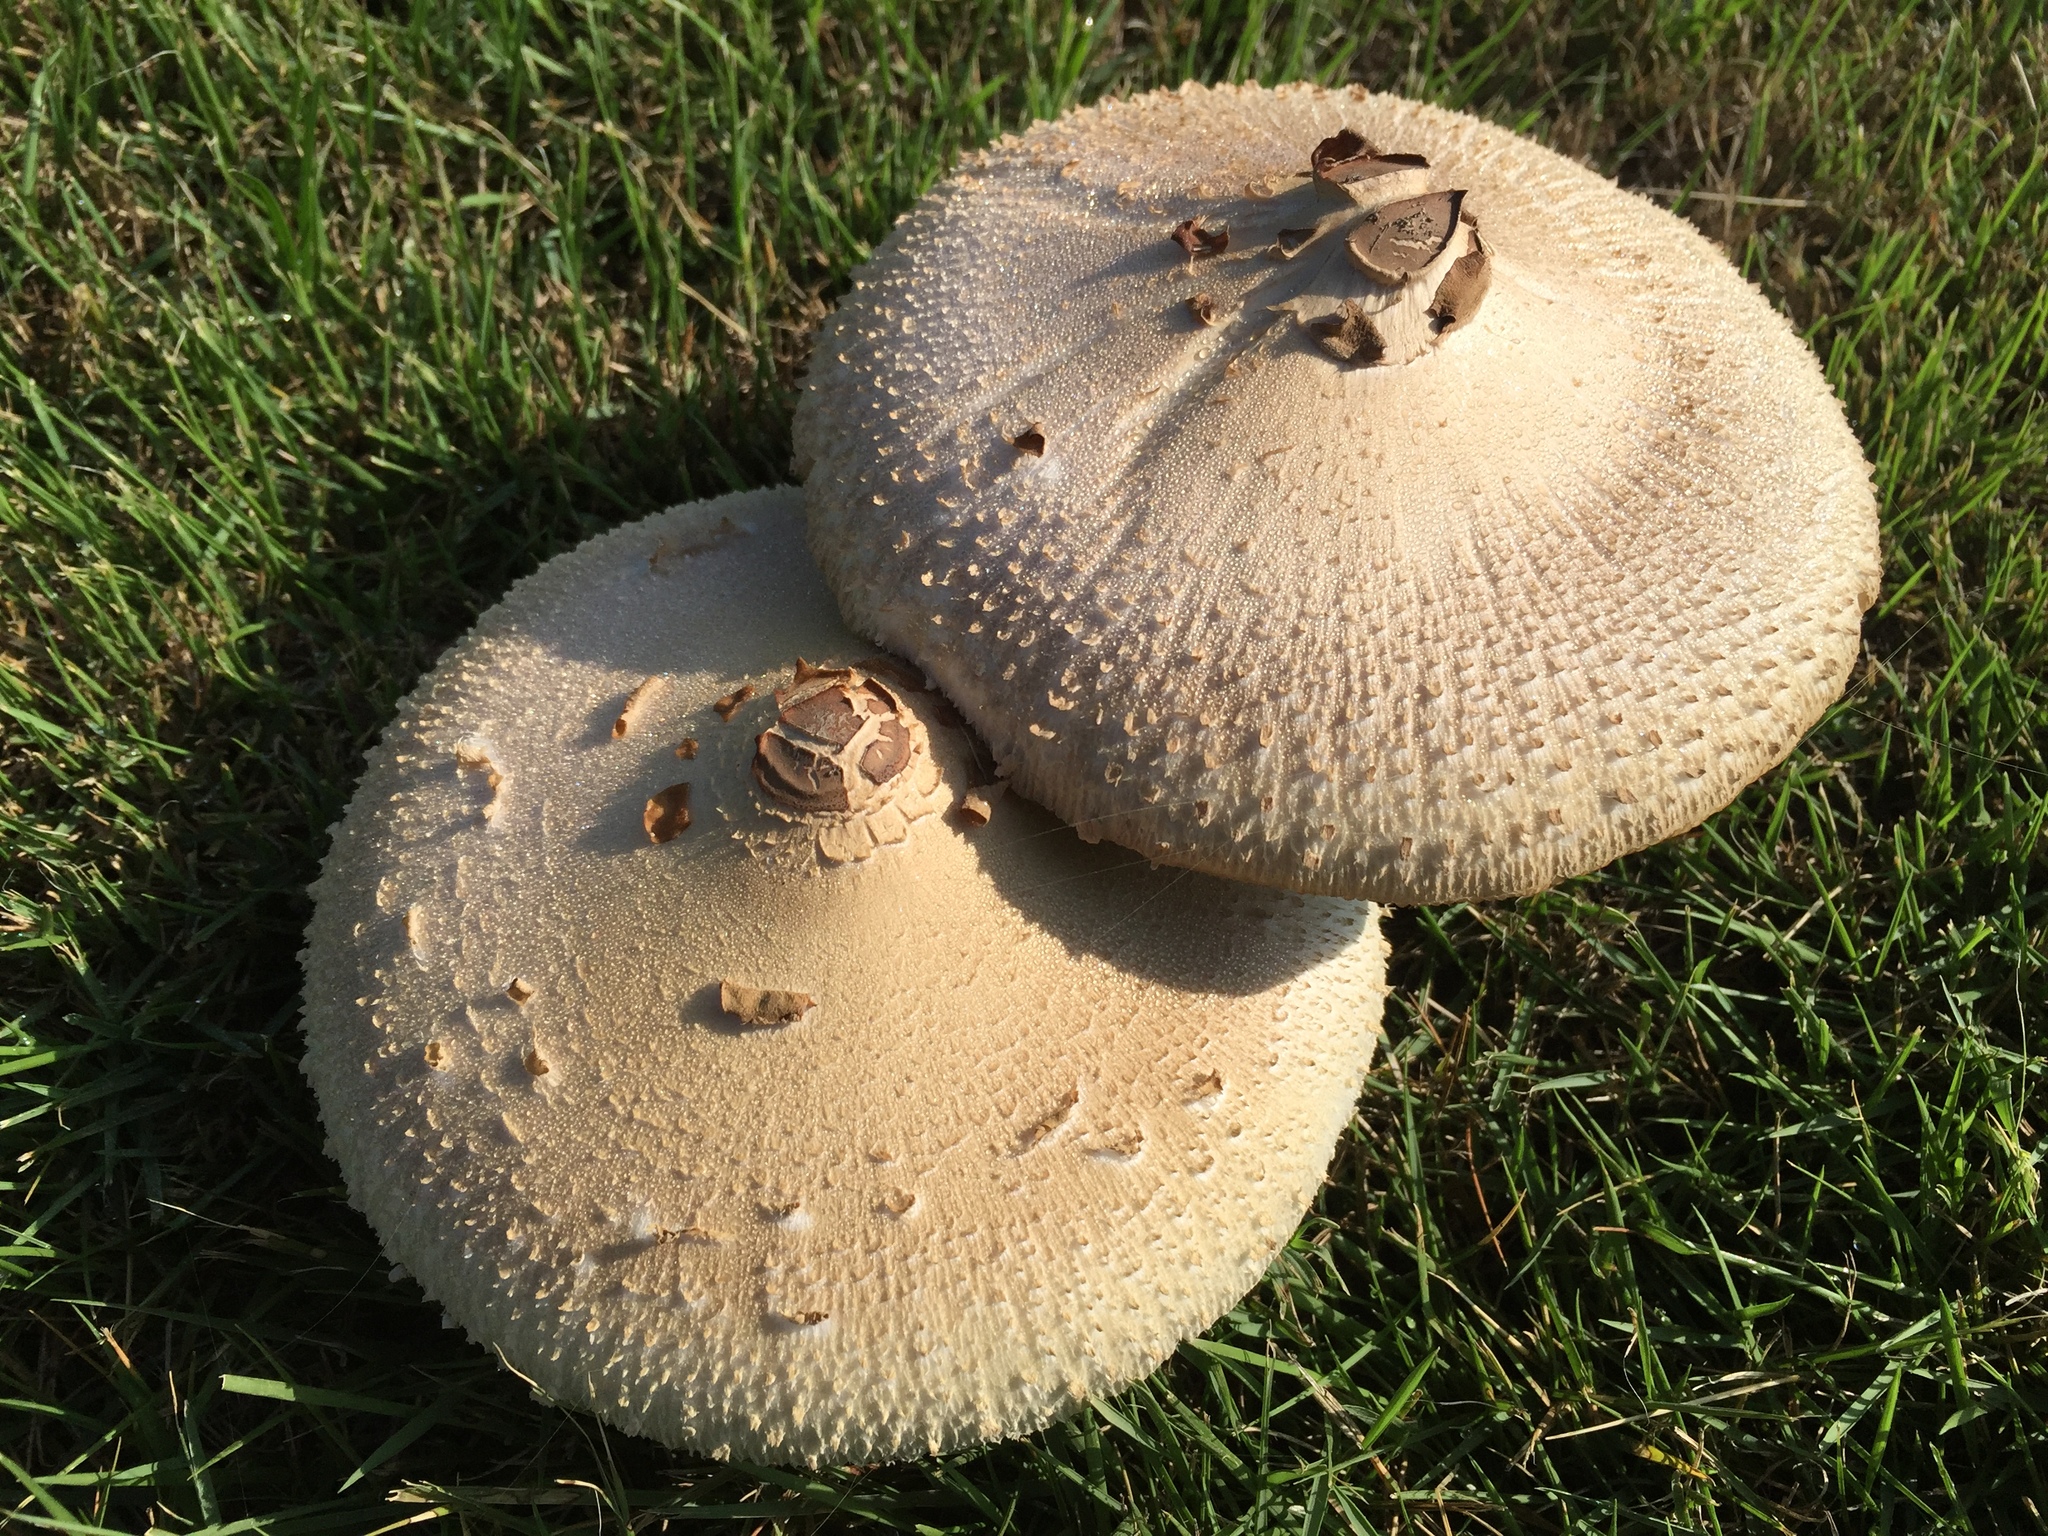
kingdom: Fungi
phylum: Basidiomycota
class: Agaricomycetes
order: Agaricales
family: Agaricaceae
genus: Chlorophyllum
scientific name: Chlorophyllum molybdites
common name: False parasol
